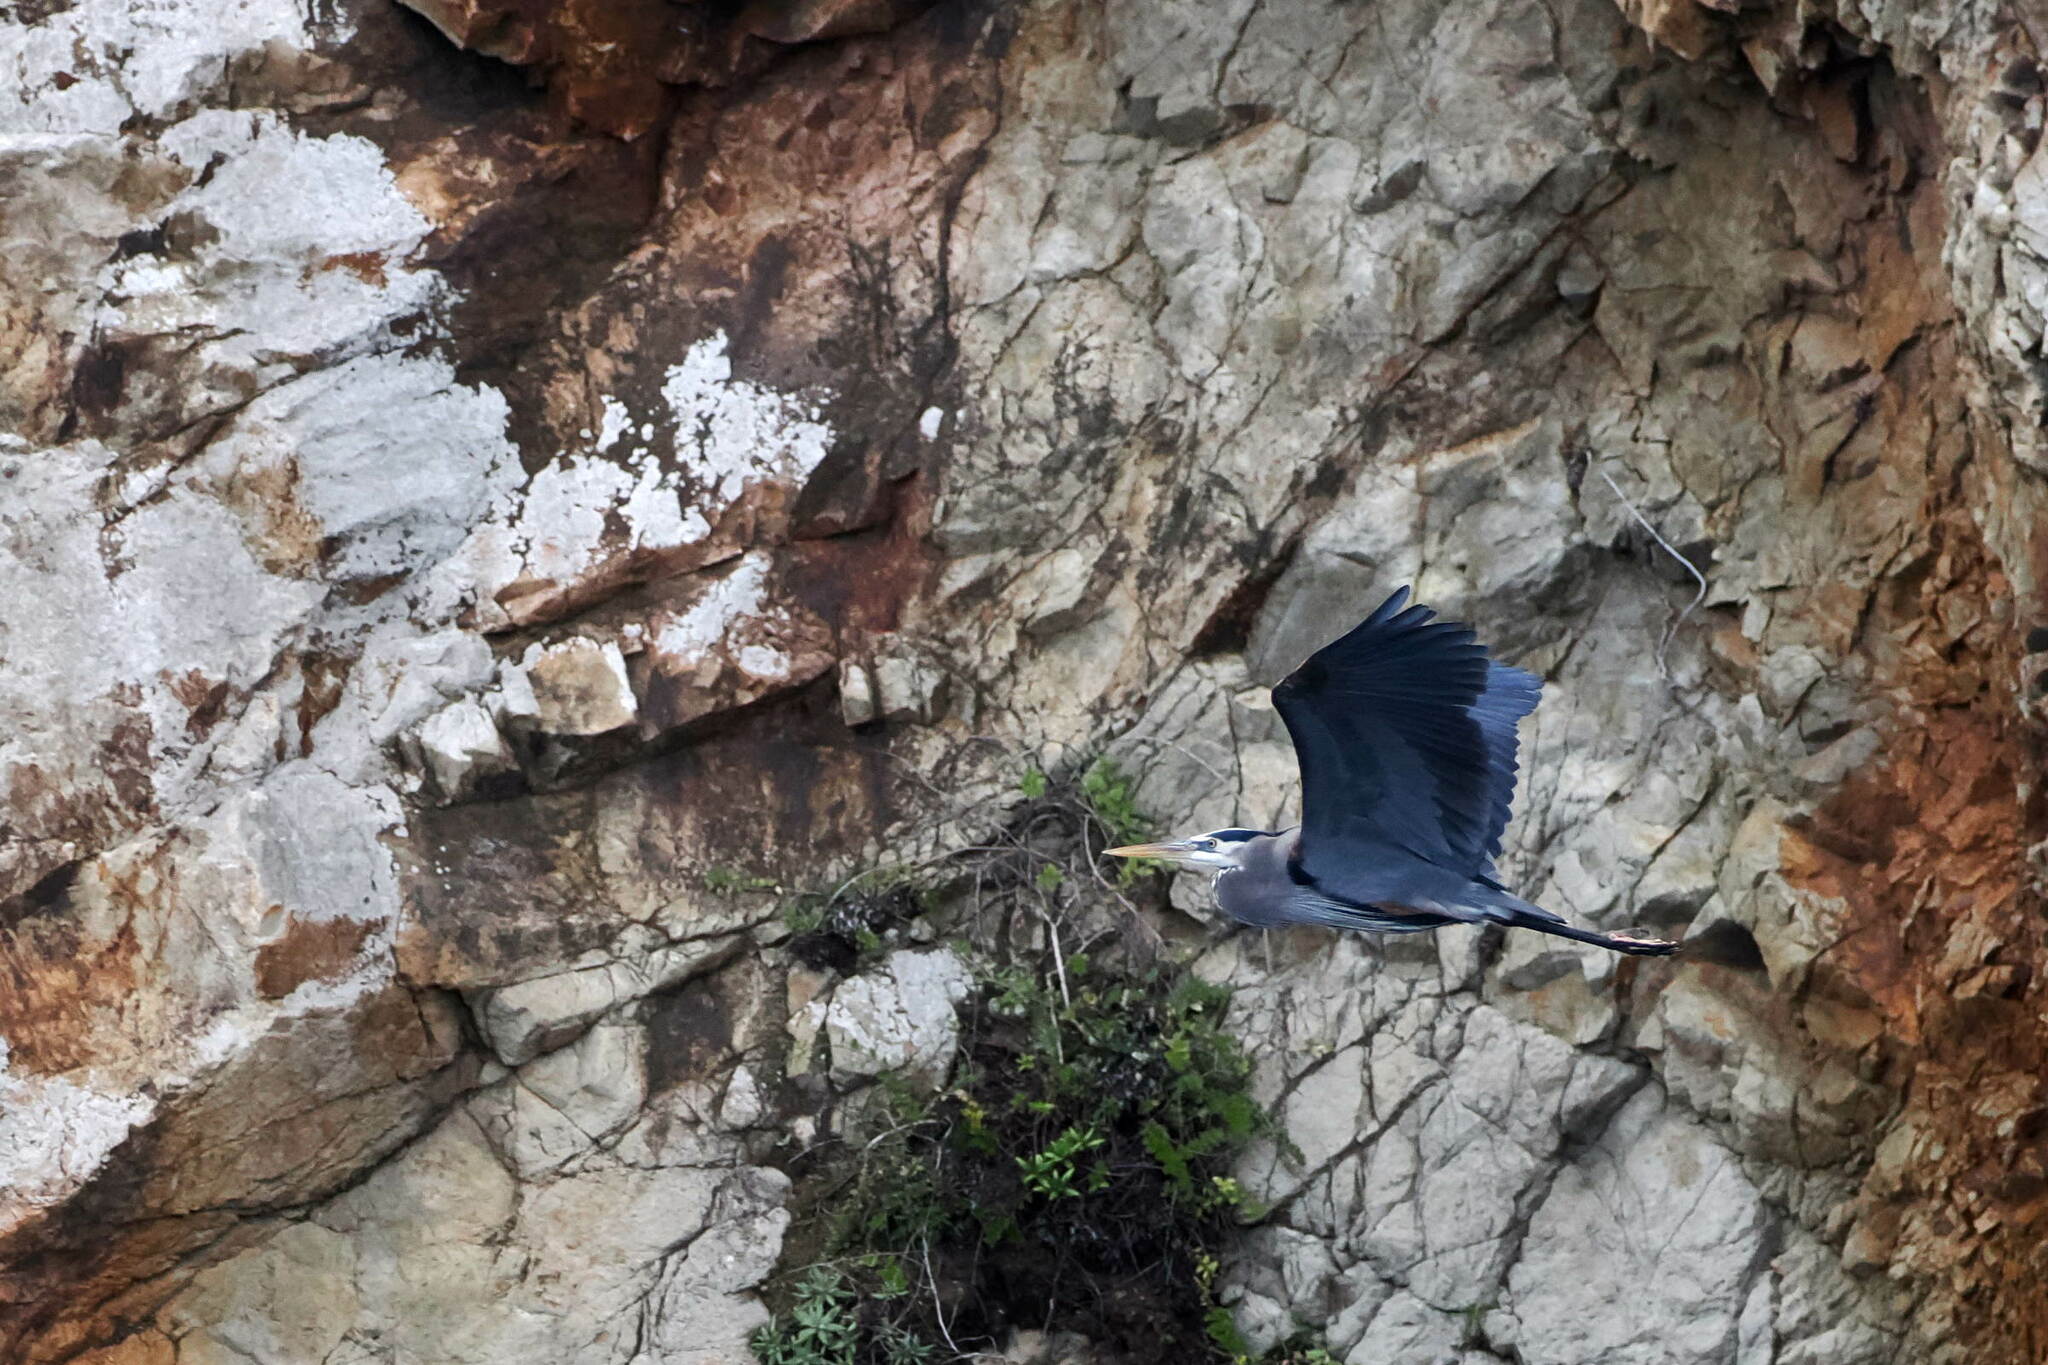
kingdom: Animalia
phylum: Chordata
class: Aves
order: Pelecaniformes
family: Ardeidae
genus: Ardea
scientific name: Ardea herodias
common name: Great blue heron
